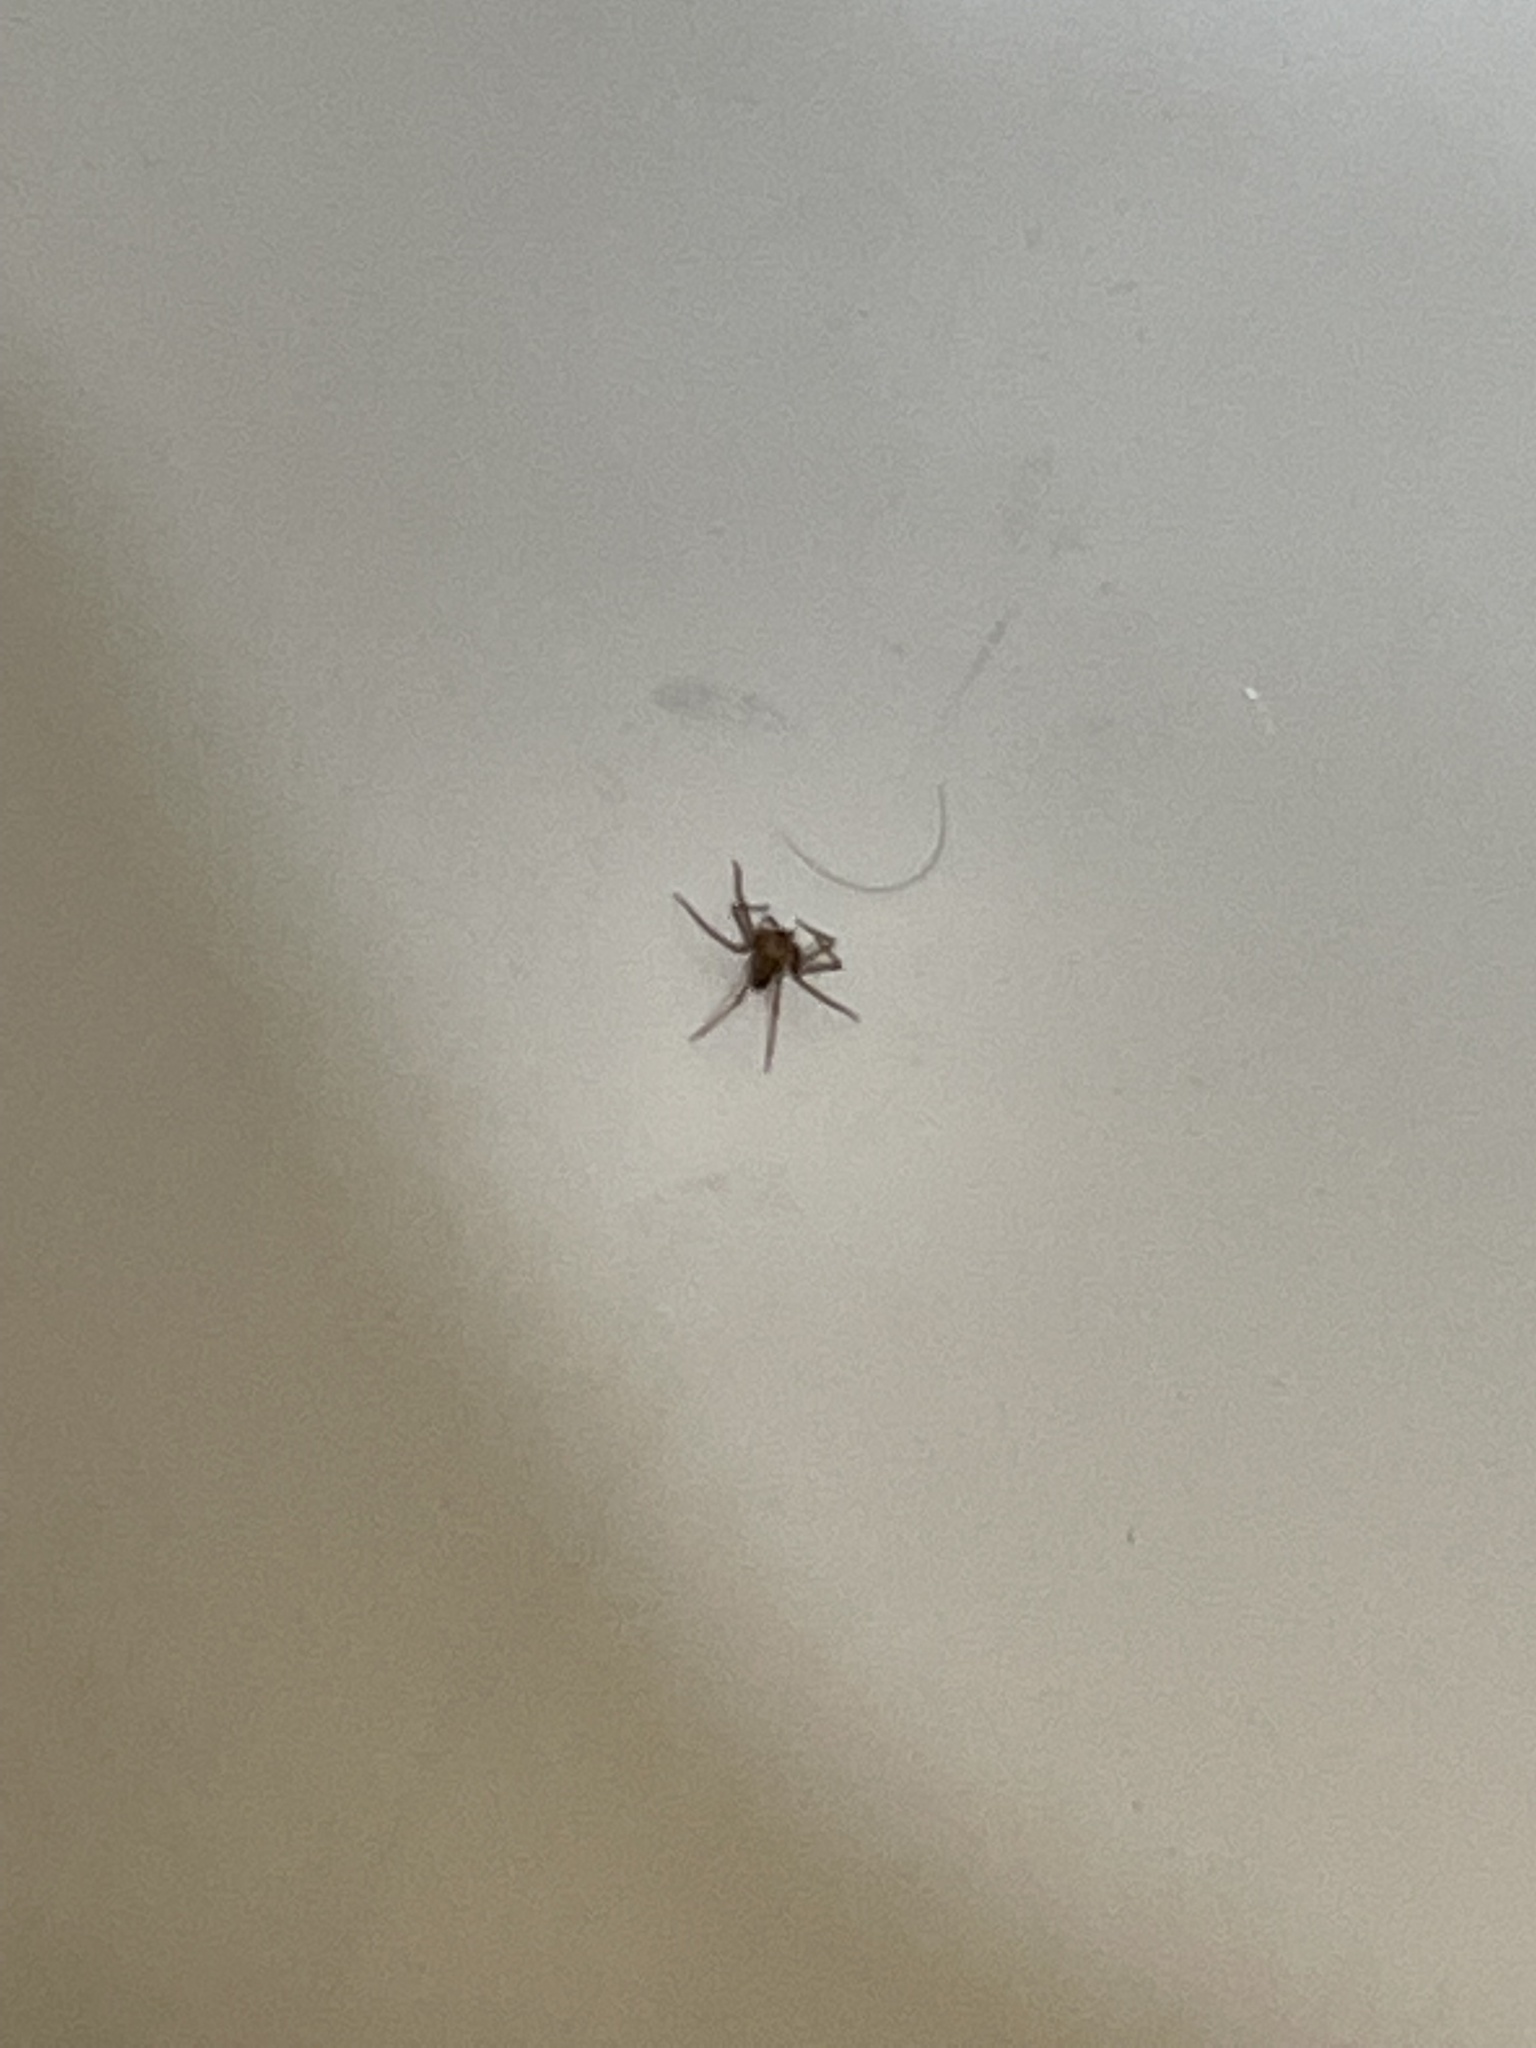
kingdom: Animalia
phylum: Arthropoda
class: Arachnida
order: Araneae
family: Sicariidae
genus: Loxosceles
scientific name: Loxosceles reclusa
